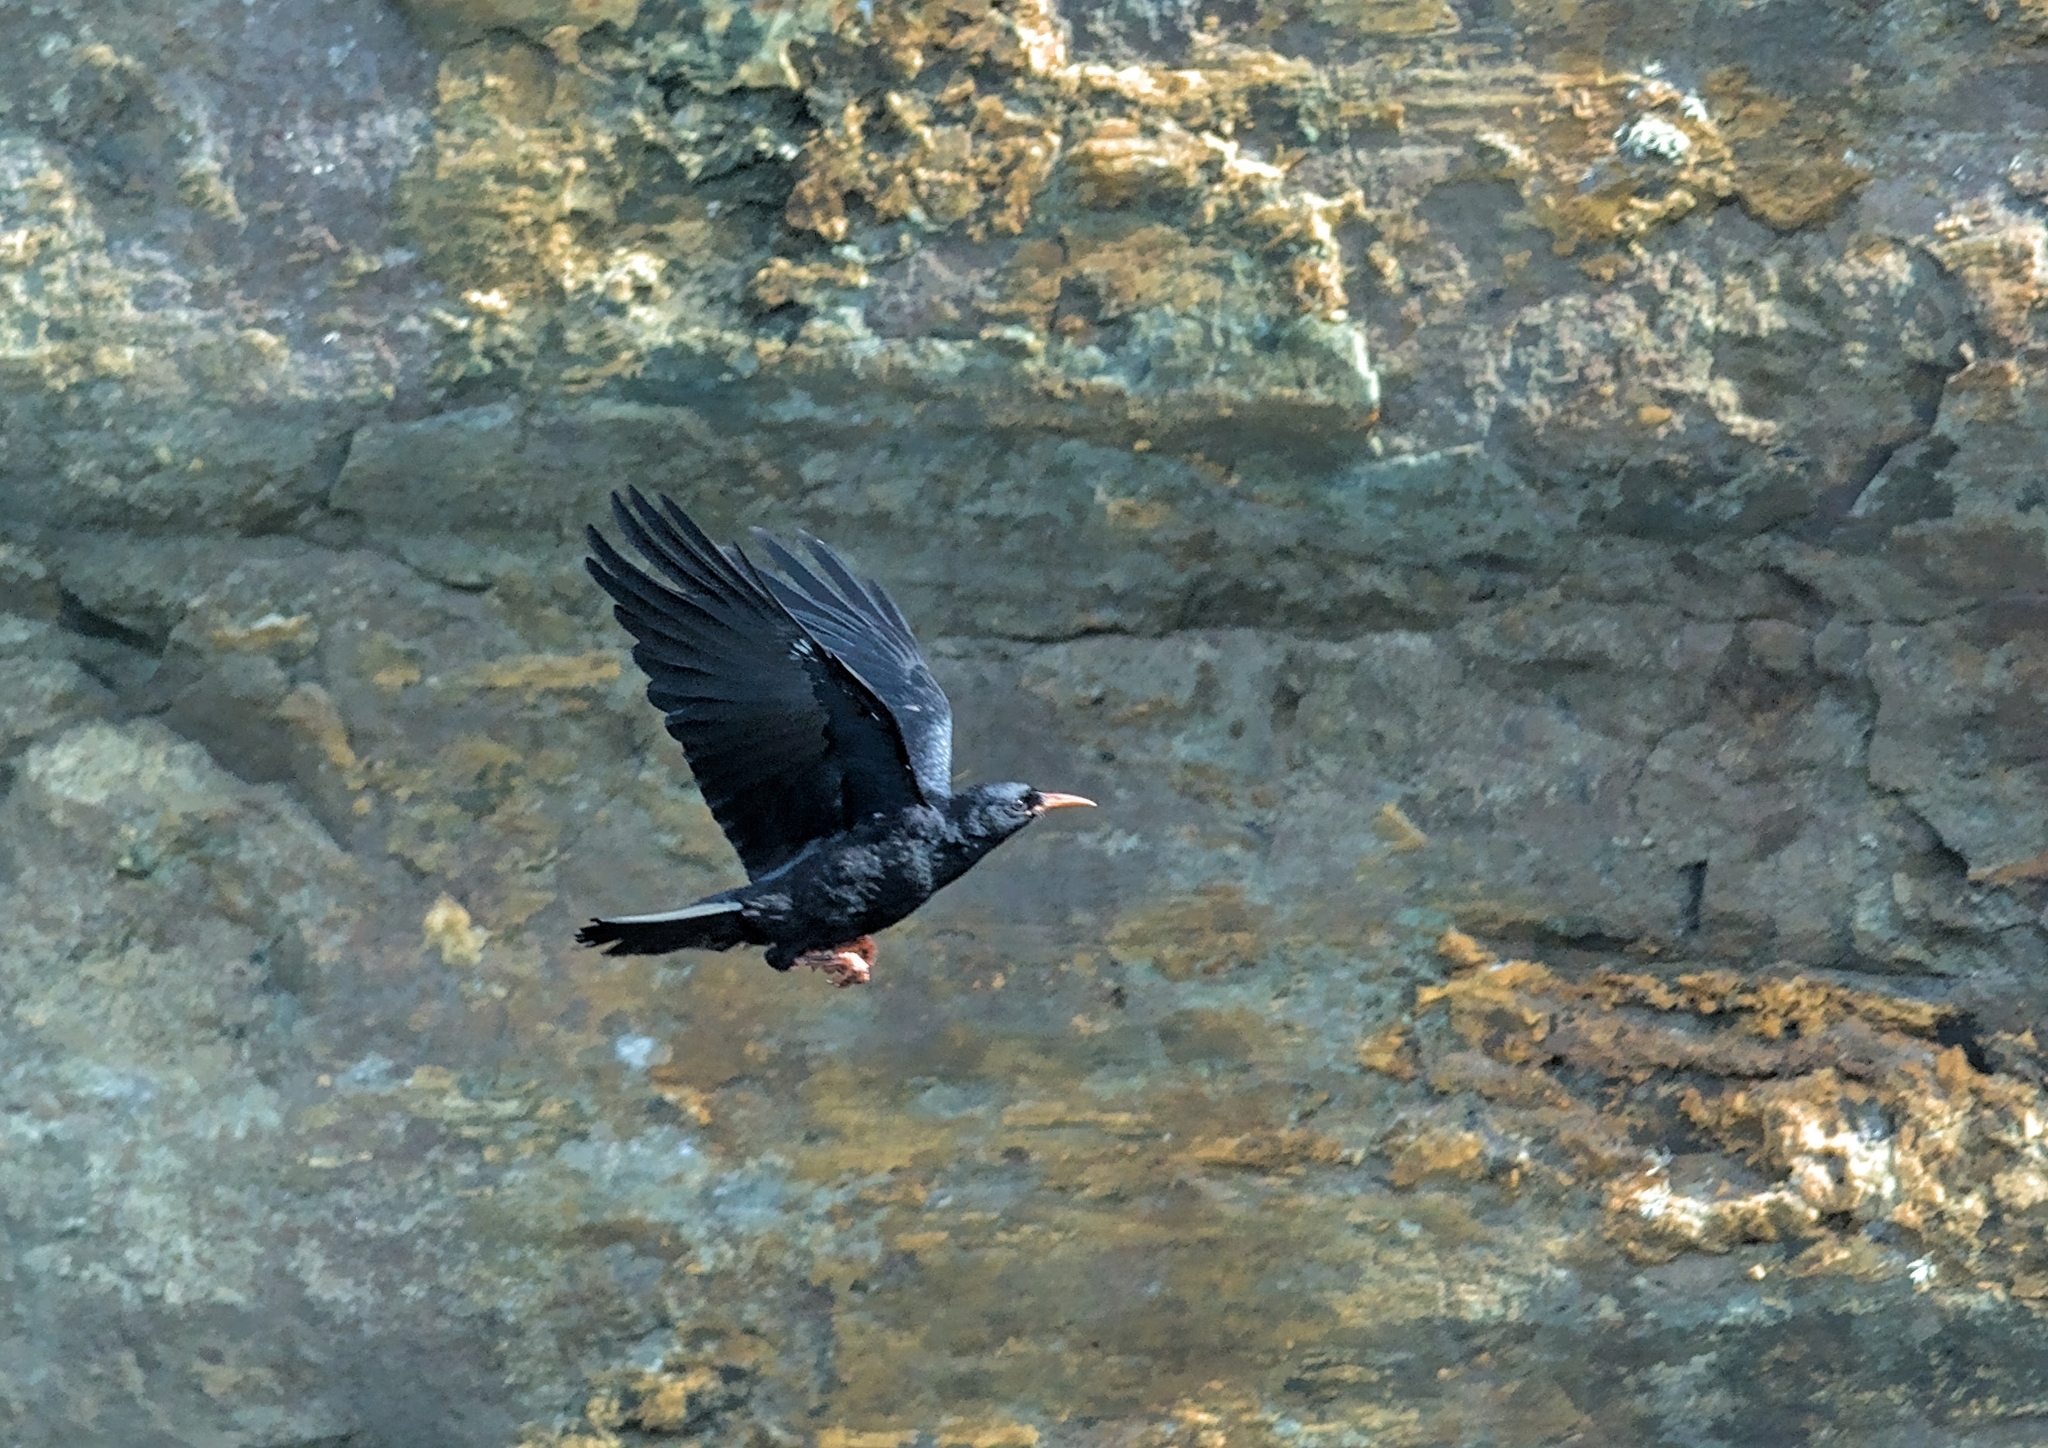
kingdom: Animalia
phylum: Chordata
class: Aves
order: Passeriformes
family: Corvidae
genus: Pyrrhocorax
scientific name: Pyrrhocorax pyrrhocorax
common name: Red-billed chough
